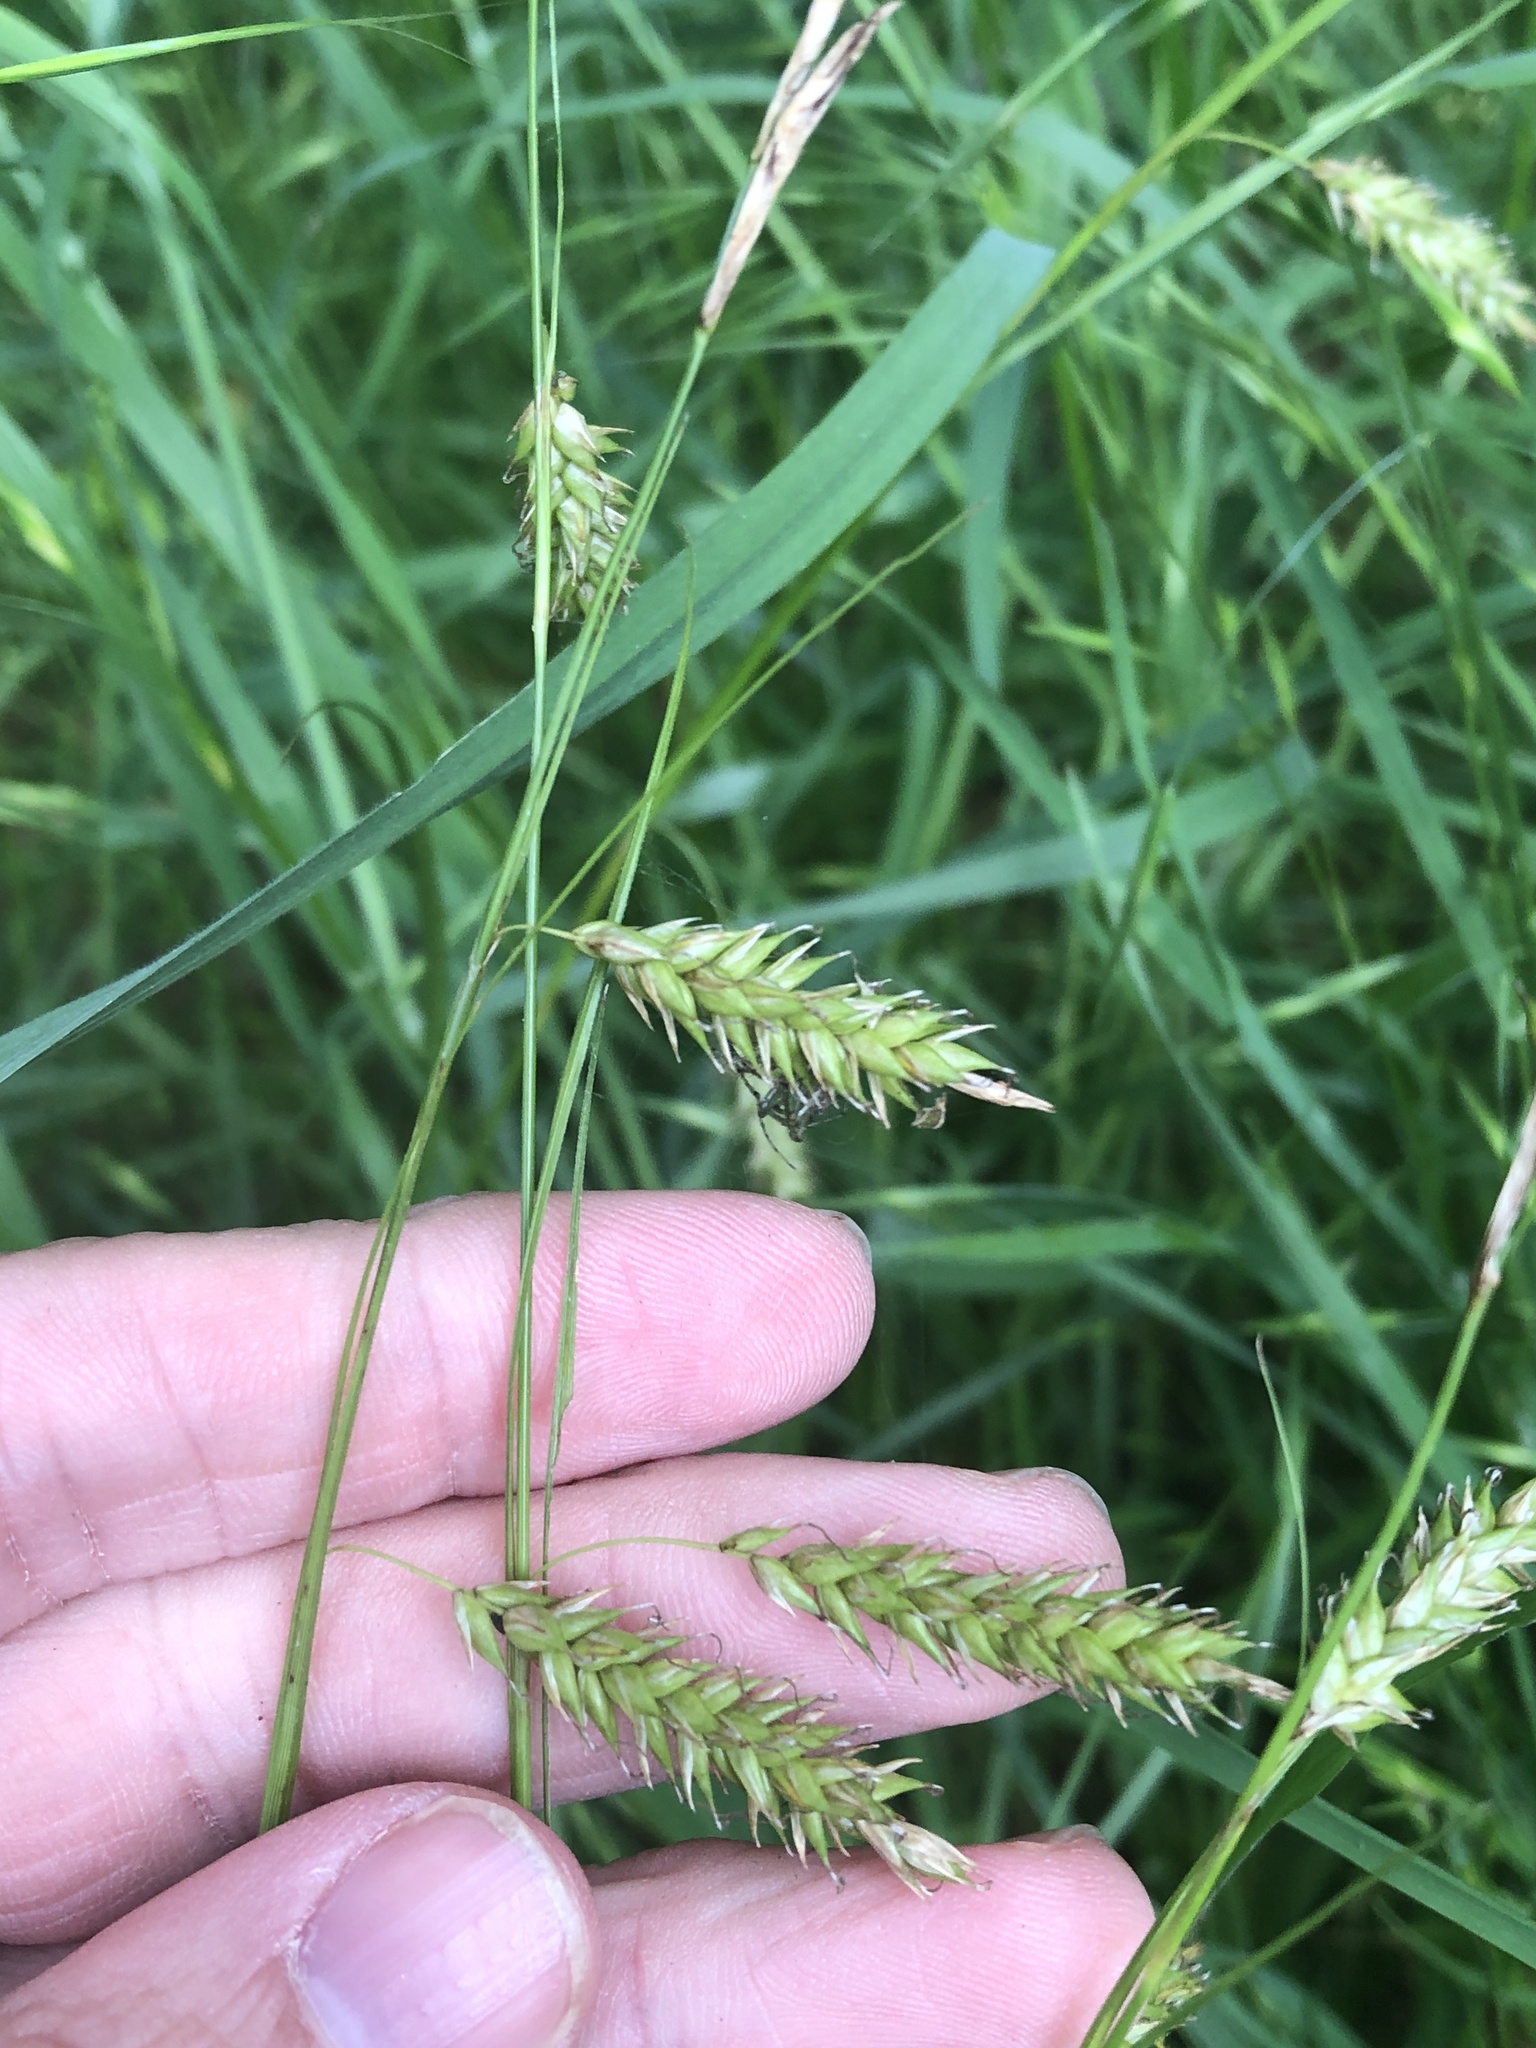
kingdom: Plantae
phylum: Tracheophyta
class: Liliopsida
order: Poales
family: Cyperaceae
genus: Carex
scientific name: Carex cherokeensis
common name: Cherokee sedge
